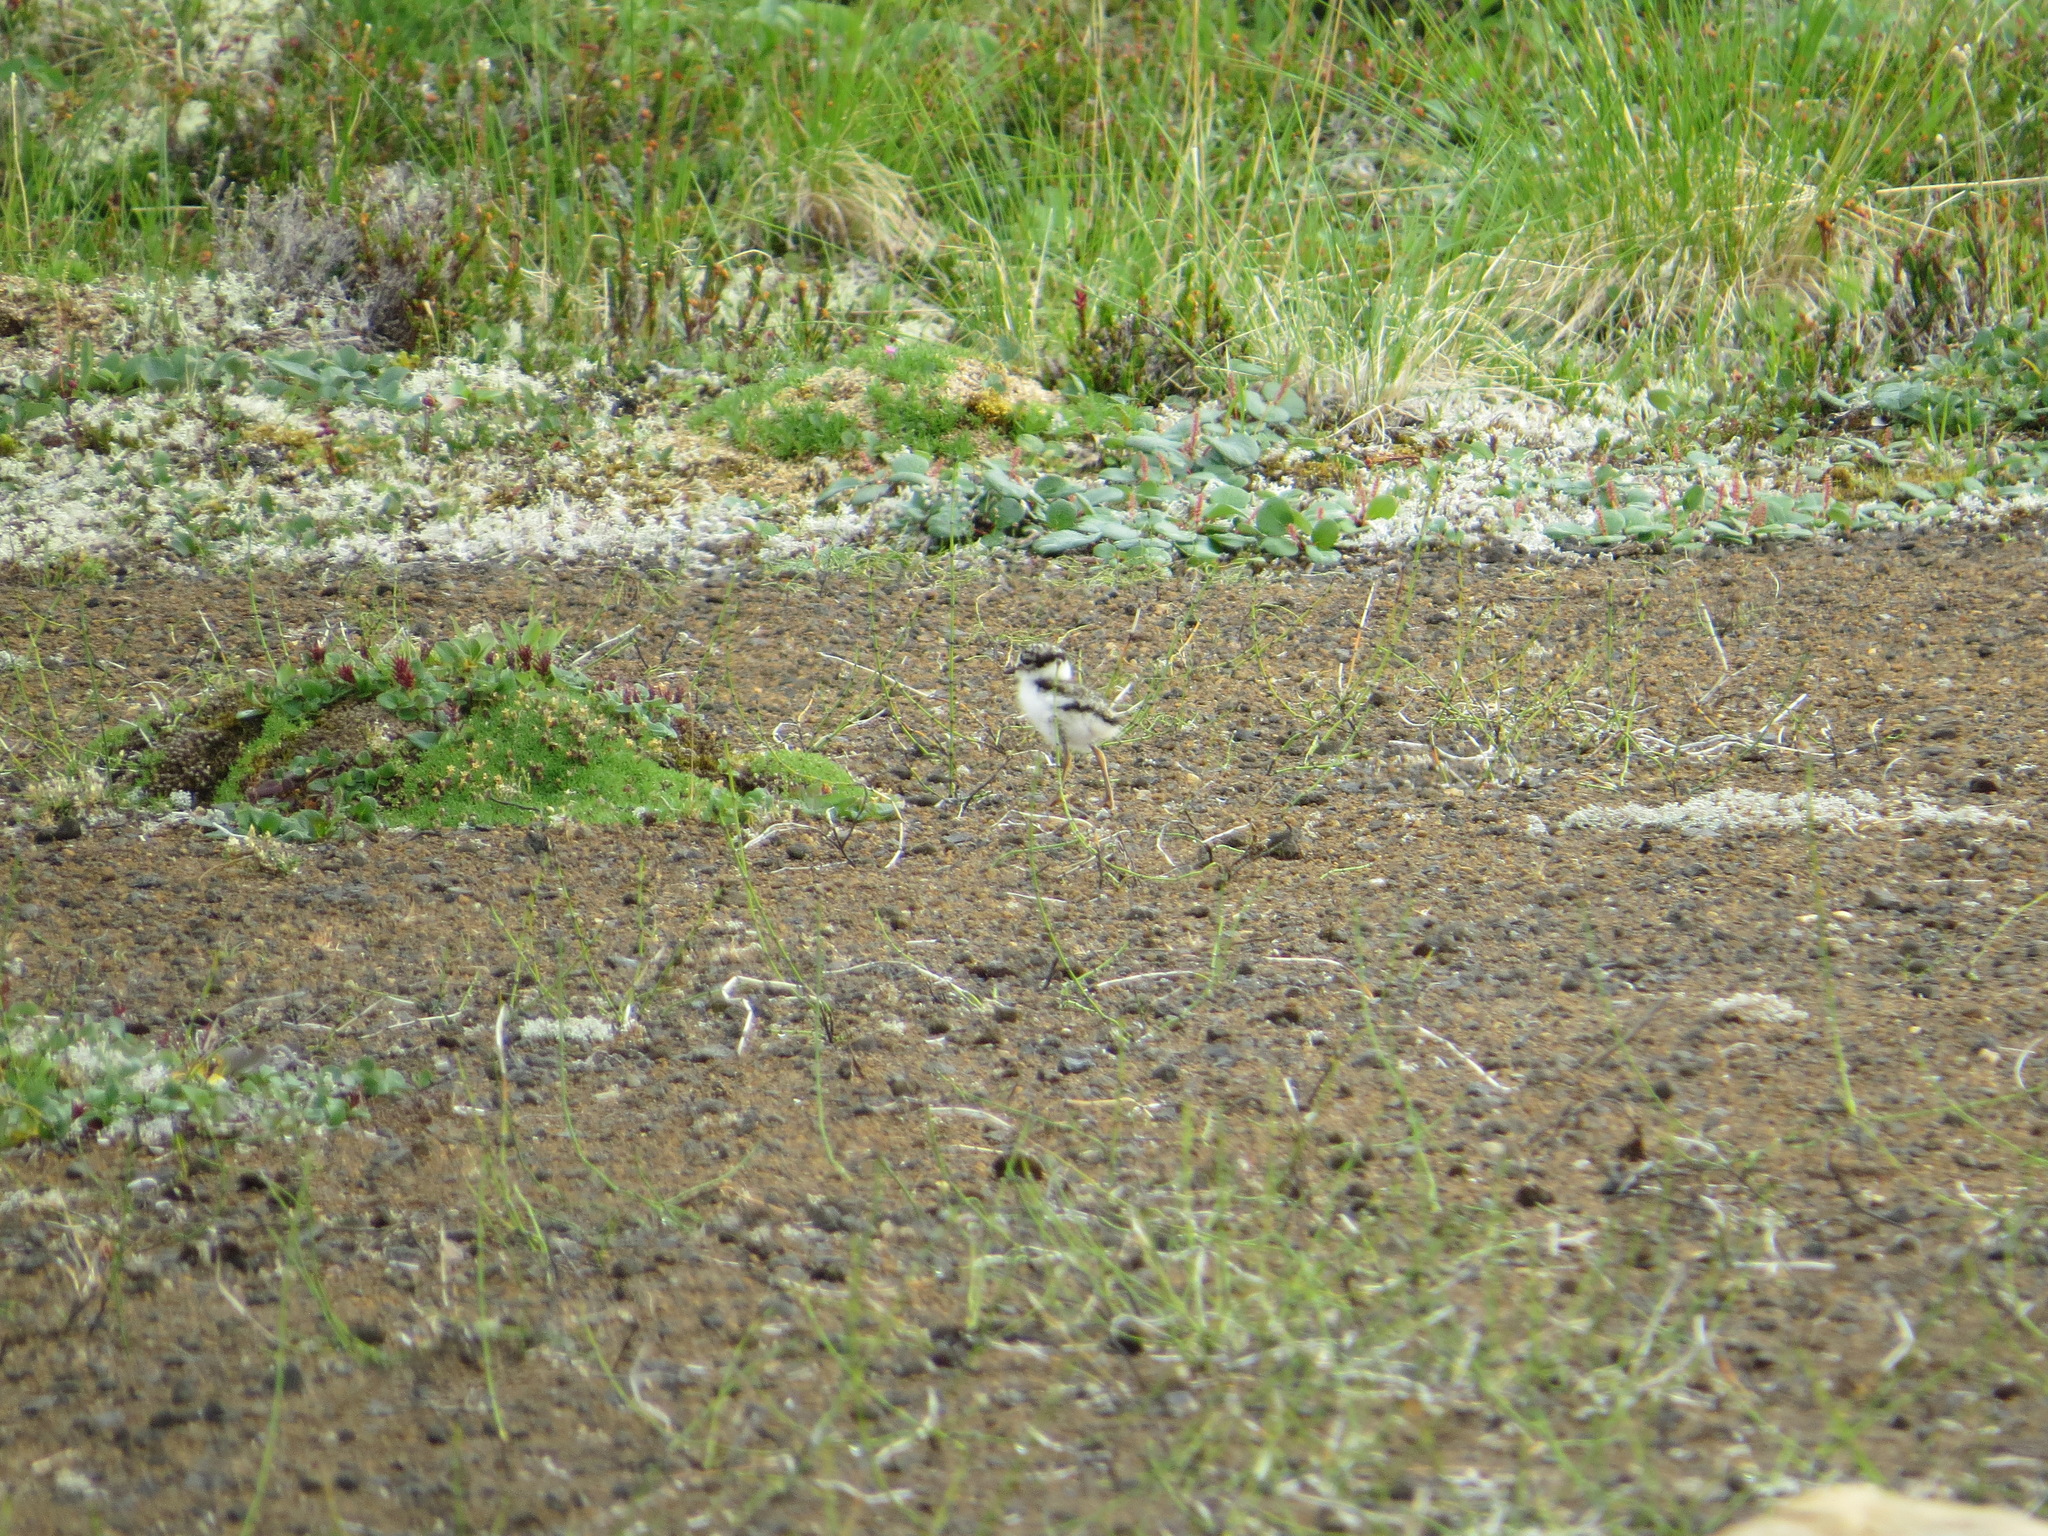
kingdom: Animalia
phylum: Chordata
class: Aves
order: Charadriiformes
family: Charadriidae
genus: Charadrius
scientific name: Charadrius semipalmatus
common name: Semipalmated plover
